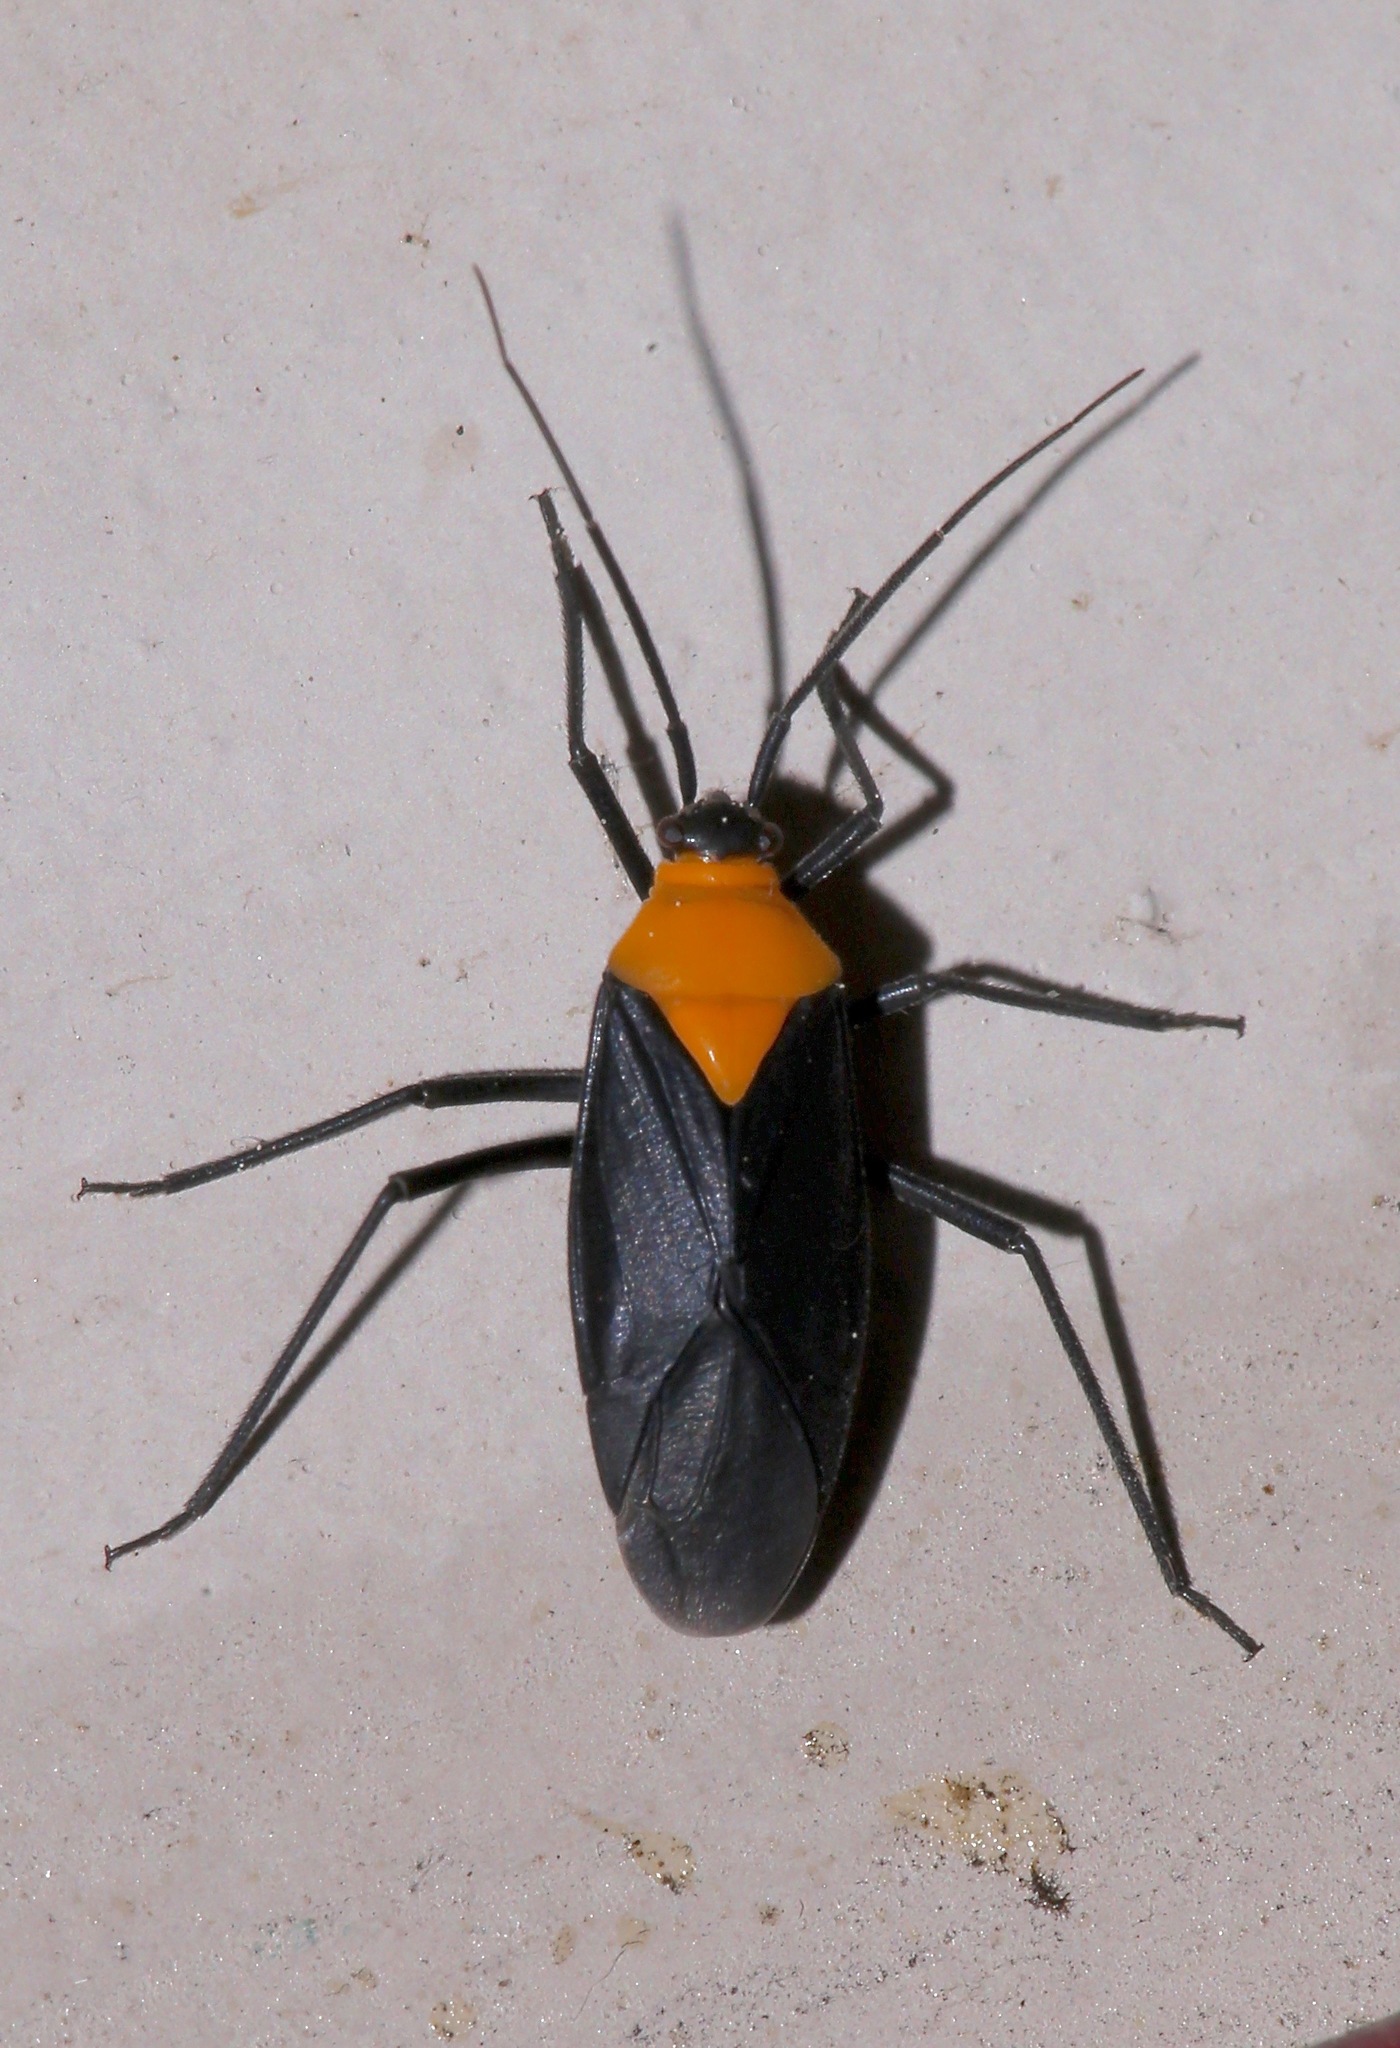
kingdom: Animalia
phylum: Arthropoda
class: Insecta
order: Hemiptera
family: Miridae
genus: Prepops
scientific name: Prepops insitivus
